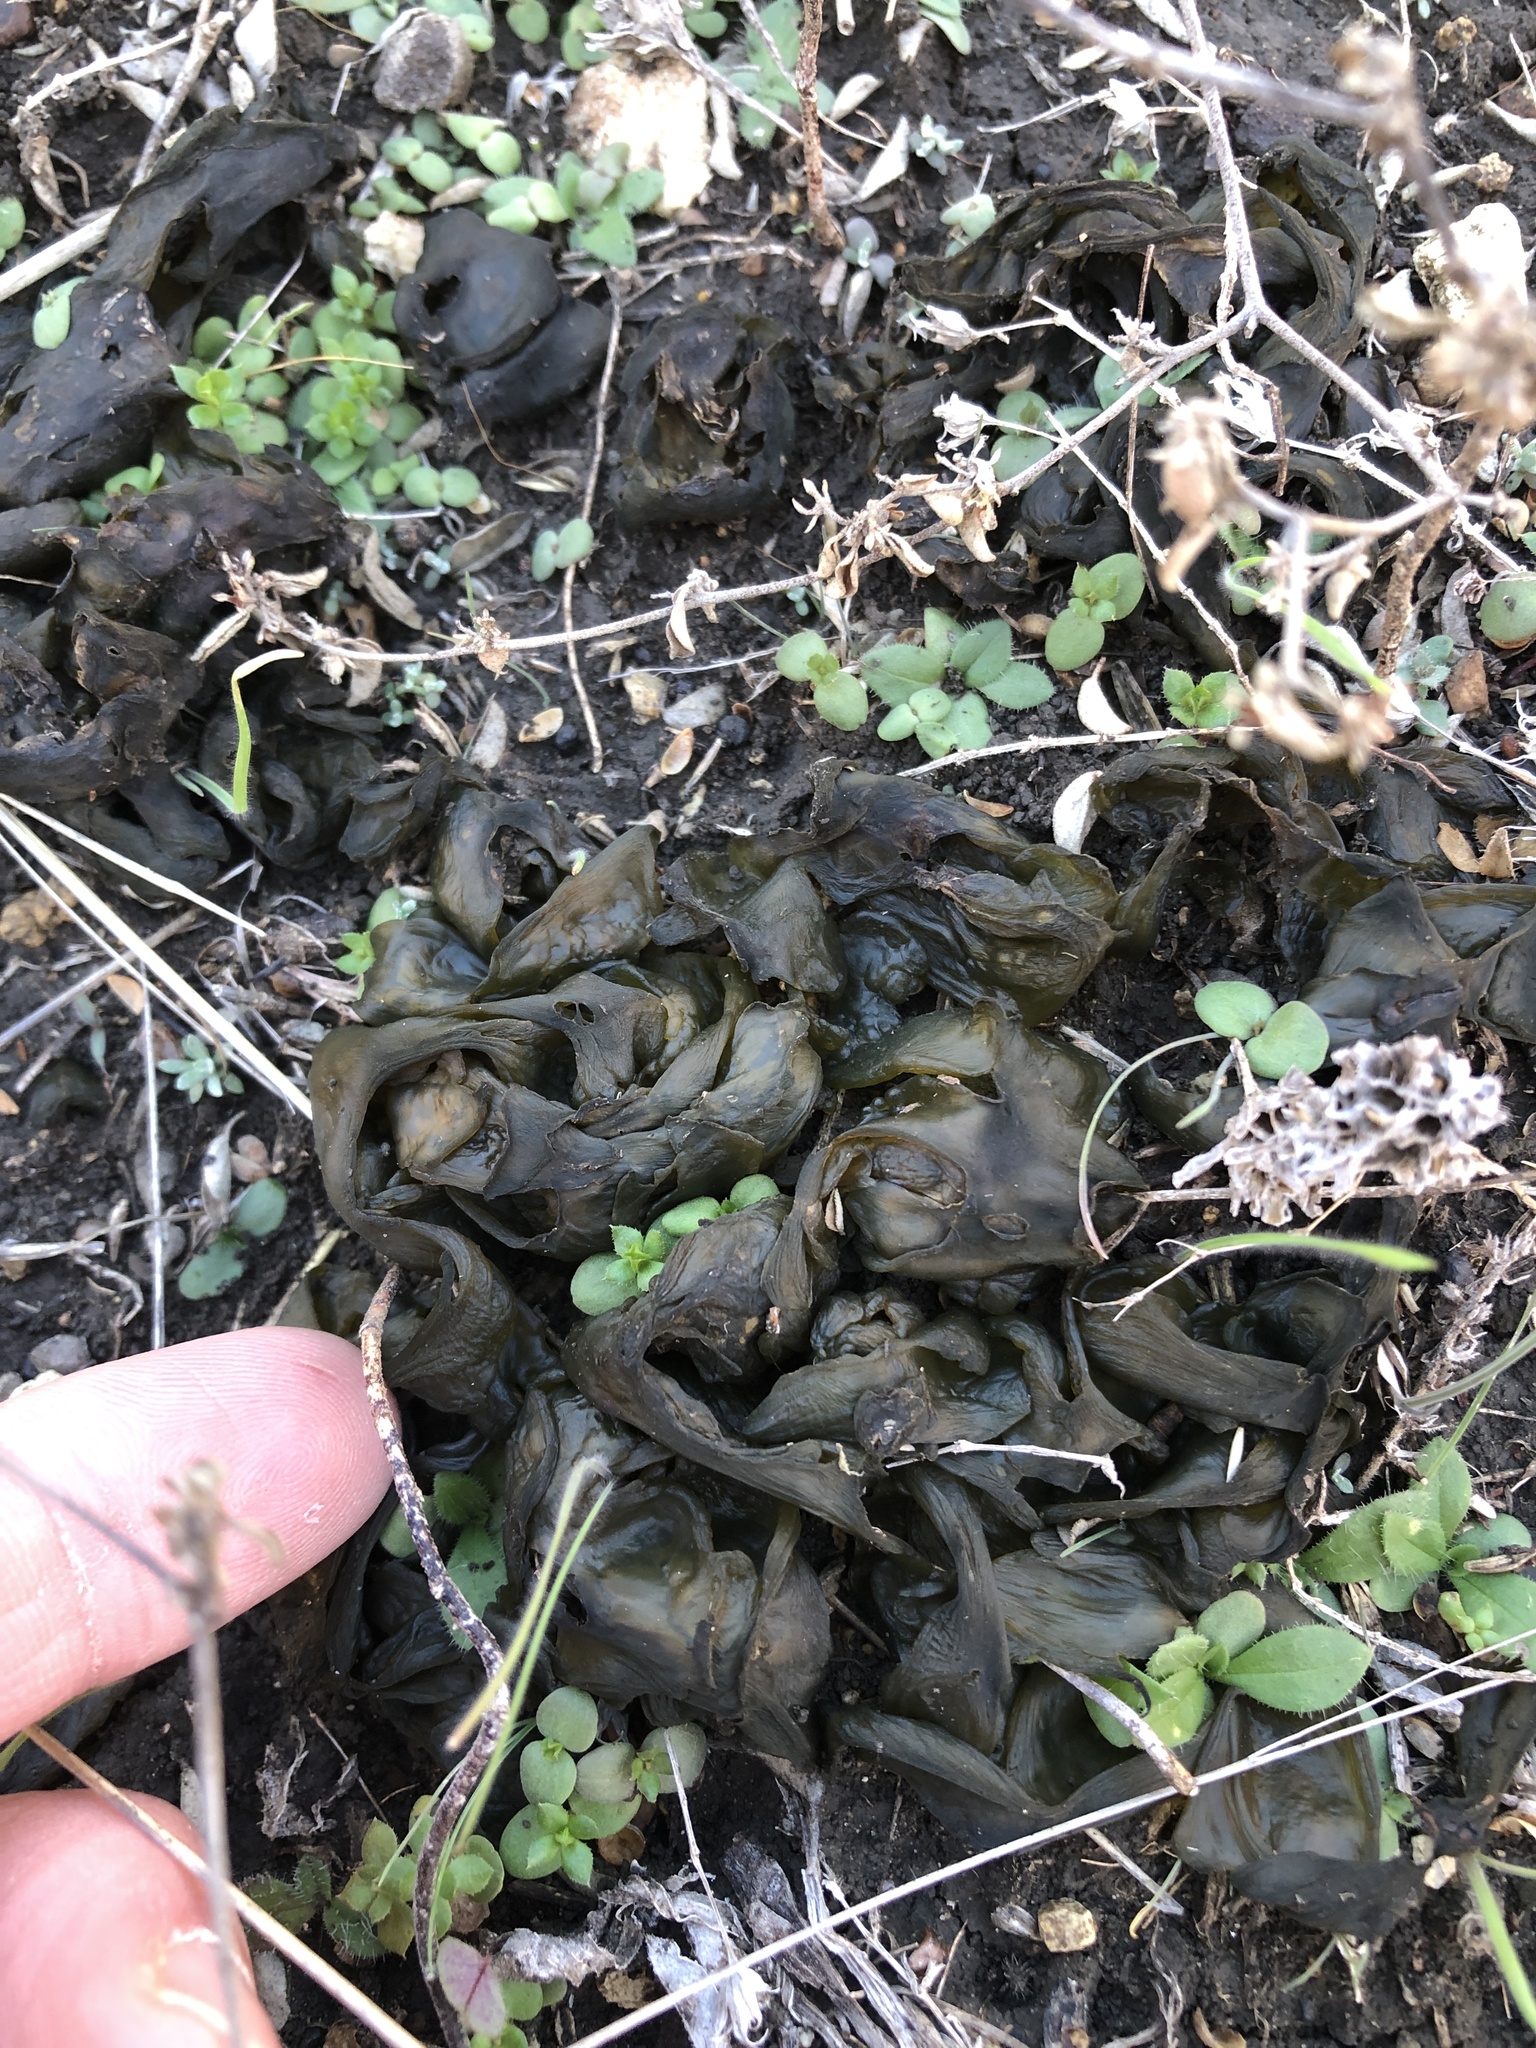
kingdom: Bacteria
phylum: Cyanobacteria
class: Cyanobacteriia
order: Cyanobacteriales
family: Nostocaceae
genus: Nostoc
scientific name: Nostoc commune
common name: Star jelly
